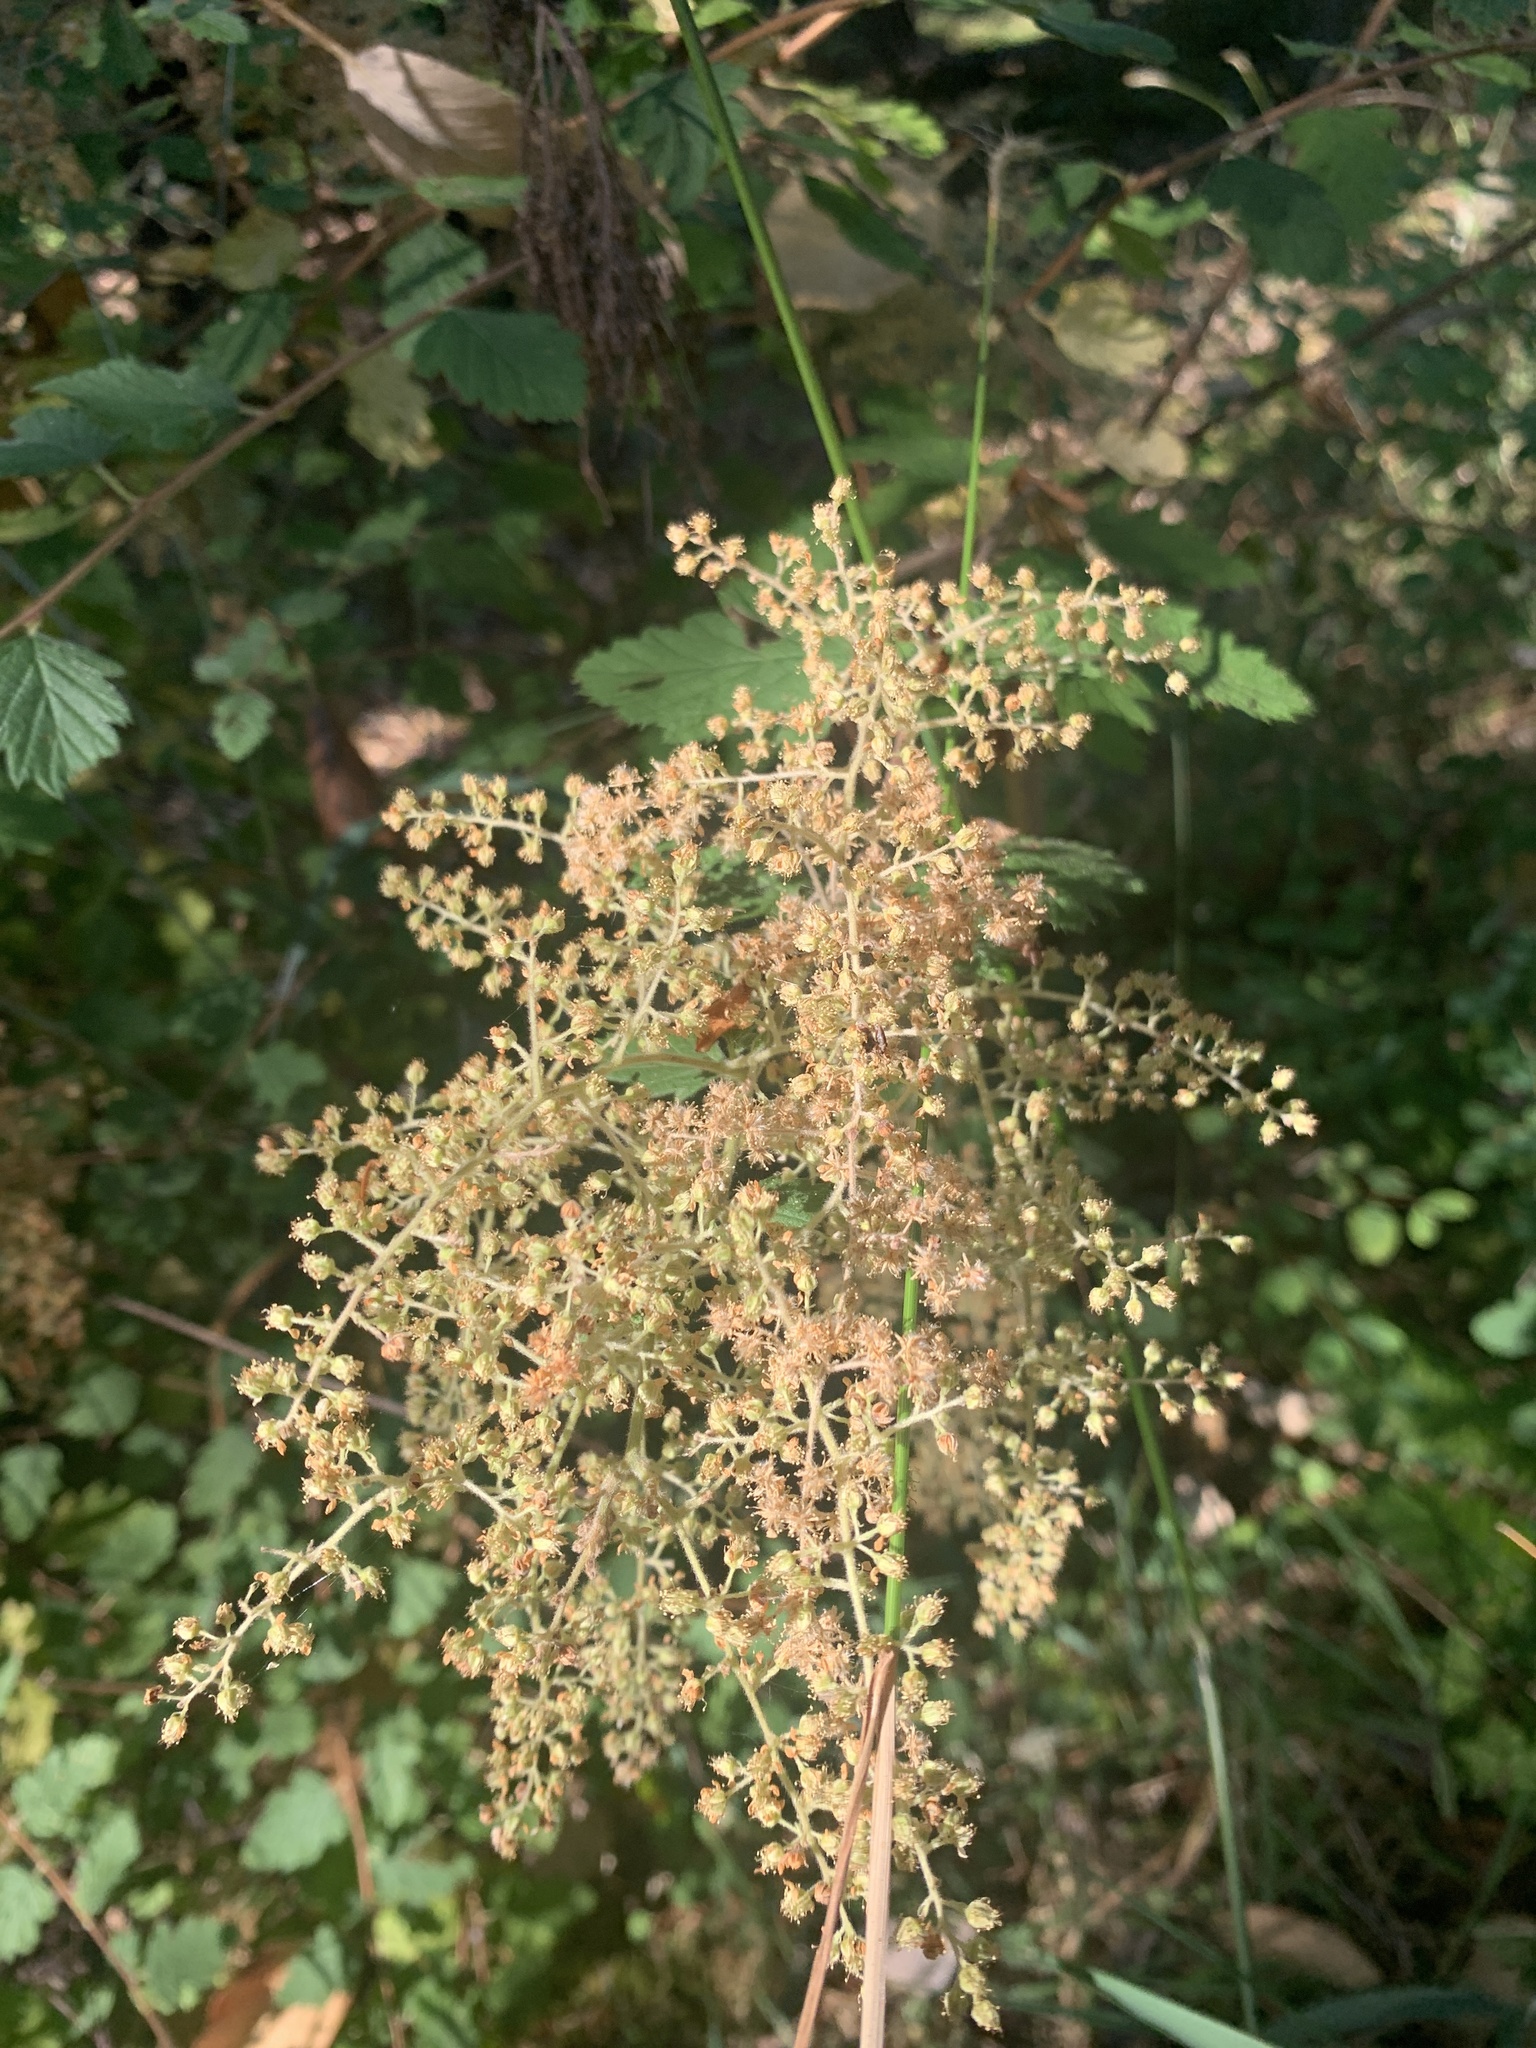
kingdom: Plantae
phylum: Tracheophyta
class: Magnoliopsida
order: Rosales
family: Rosaceae
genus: Holodiscus
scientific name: Holodiscus discolor
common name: Oceanspray
